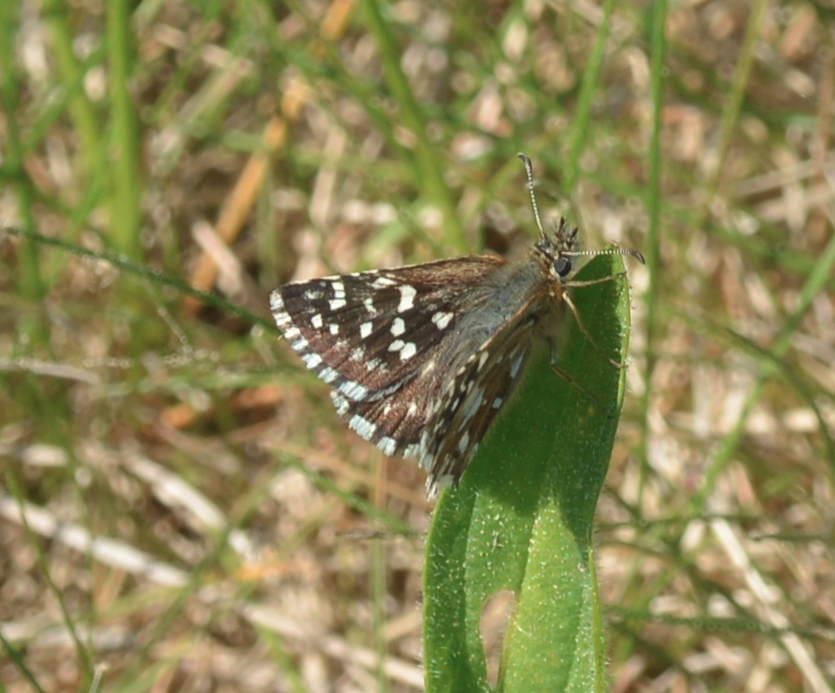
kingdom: Animalia
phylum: Arthropoda
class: Insecta
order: Lepidoptera
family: Hesperiidae
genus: Pyrgus
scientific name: Pyrgus malvae
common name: Grizzled skipper
